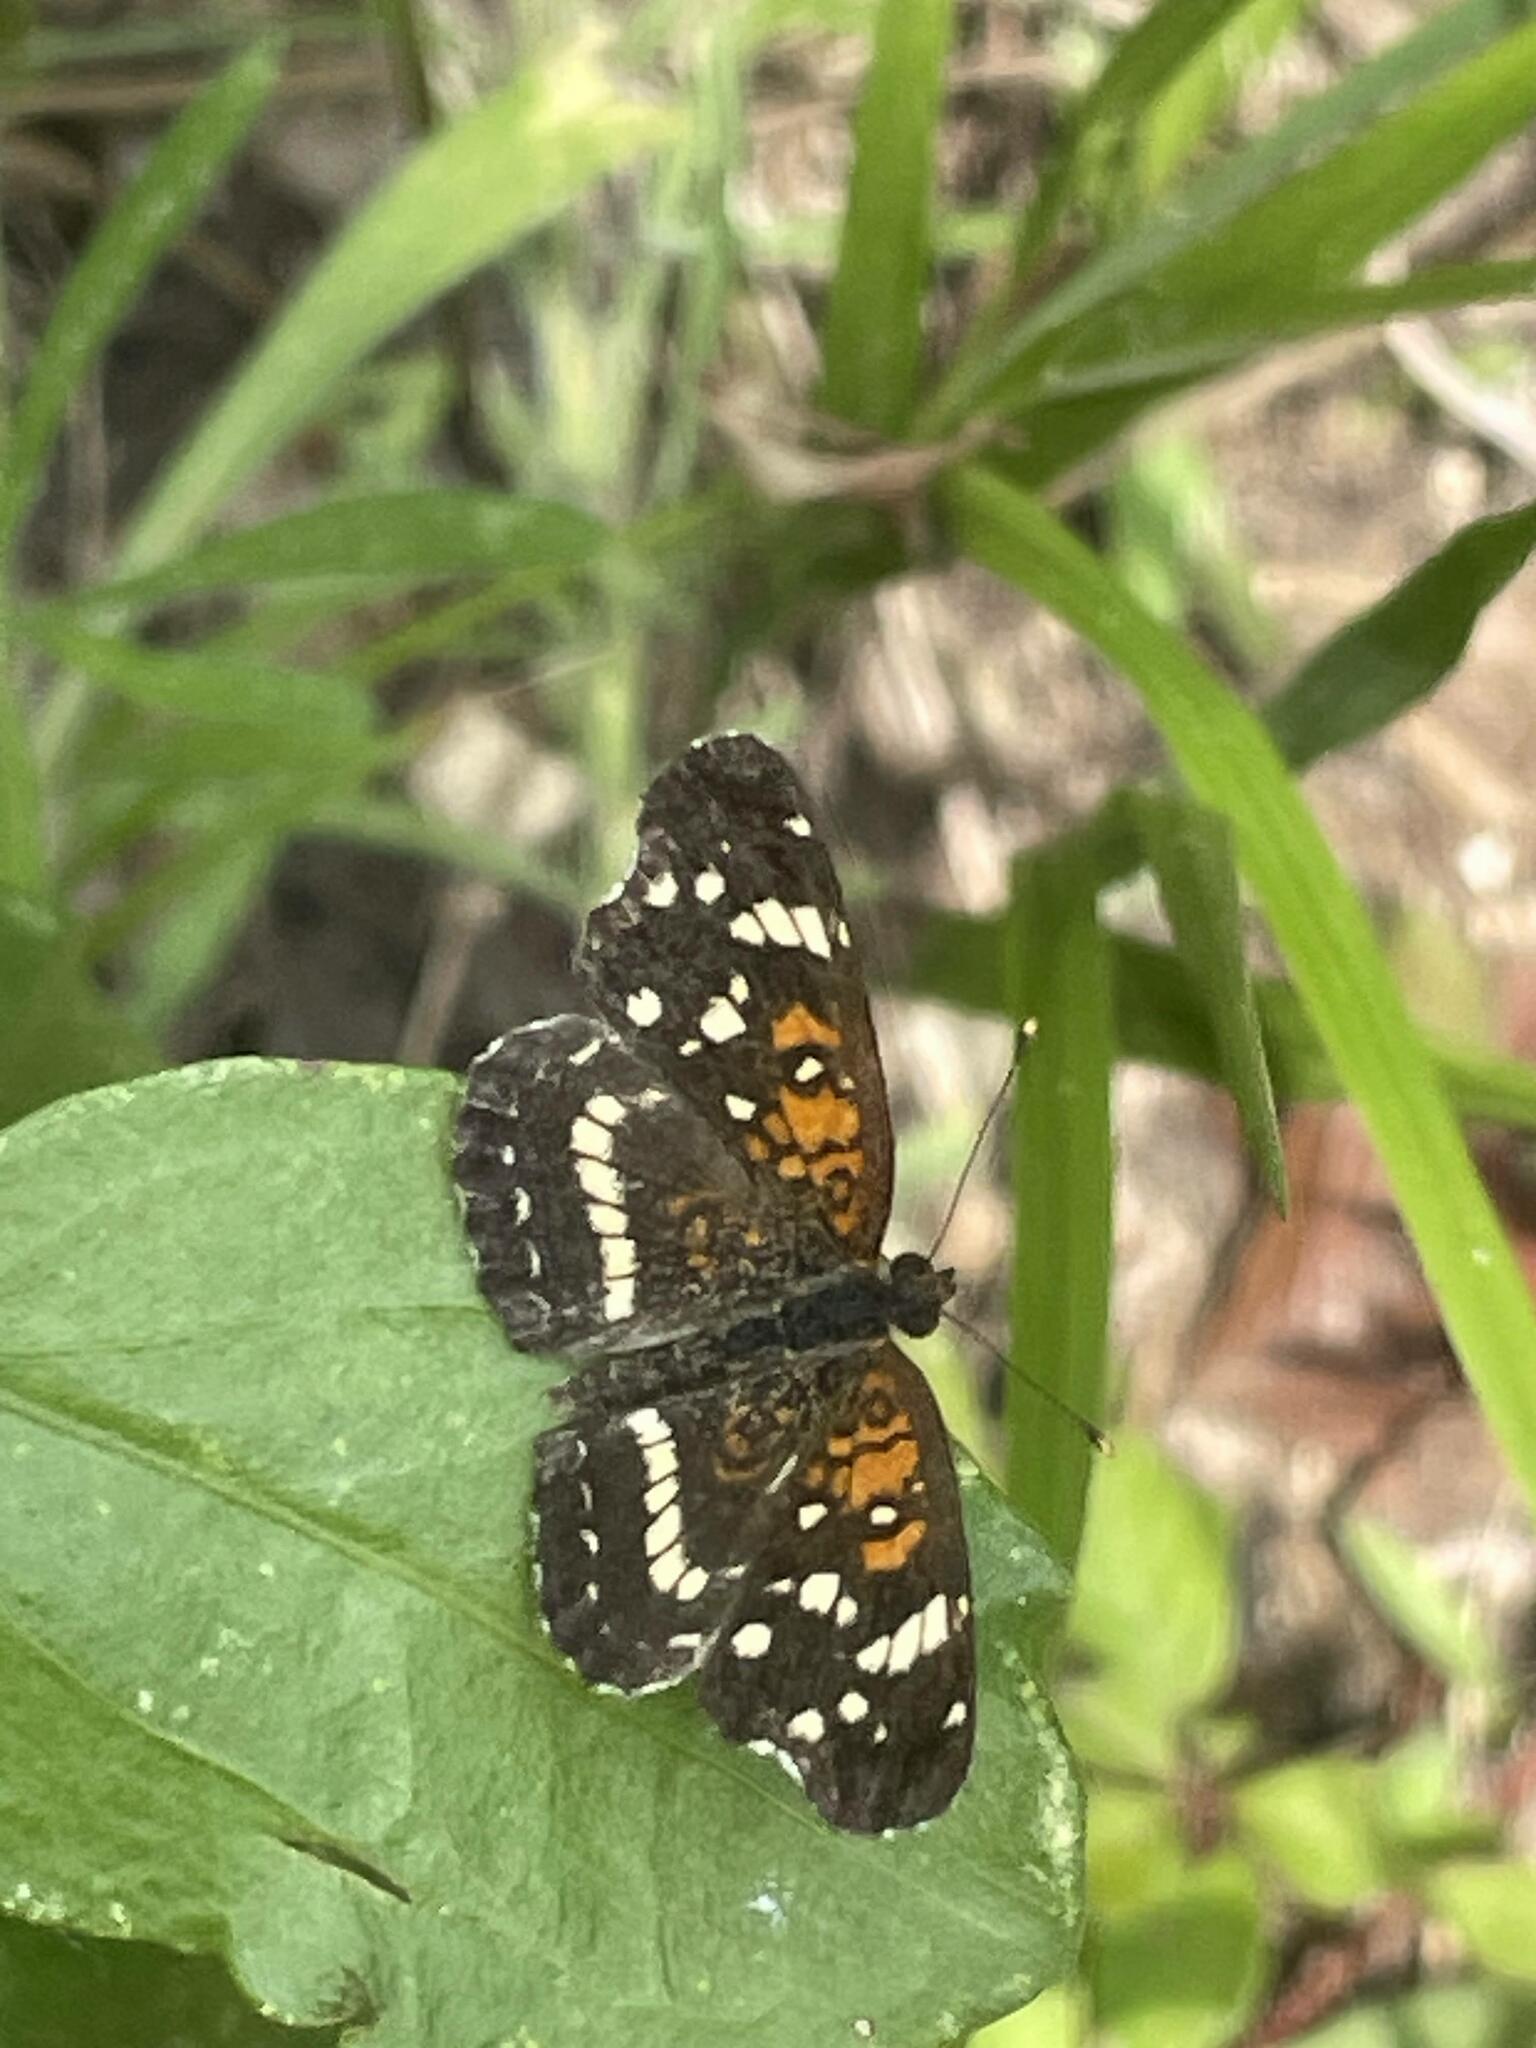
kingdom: Animalia
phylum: Arthropoda
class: Insecta
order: Lepidoptera
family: Nymphalidae
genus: Anthanassa
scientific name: Anthanassa texana
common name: Texan crescent
